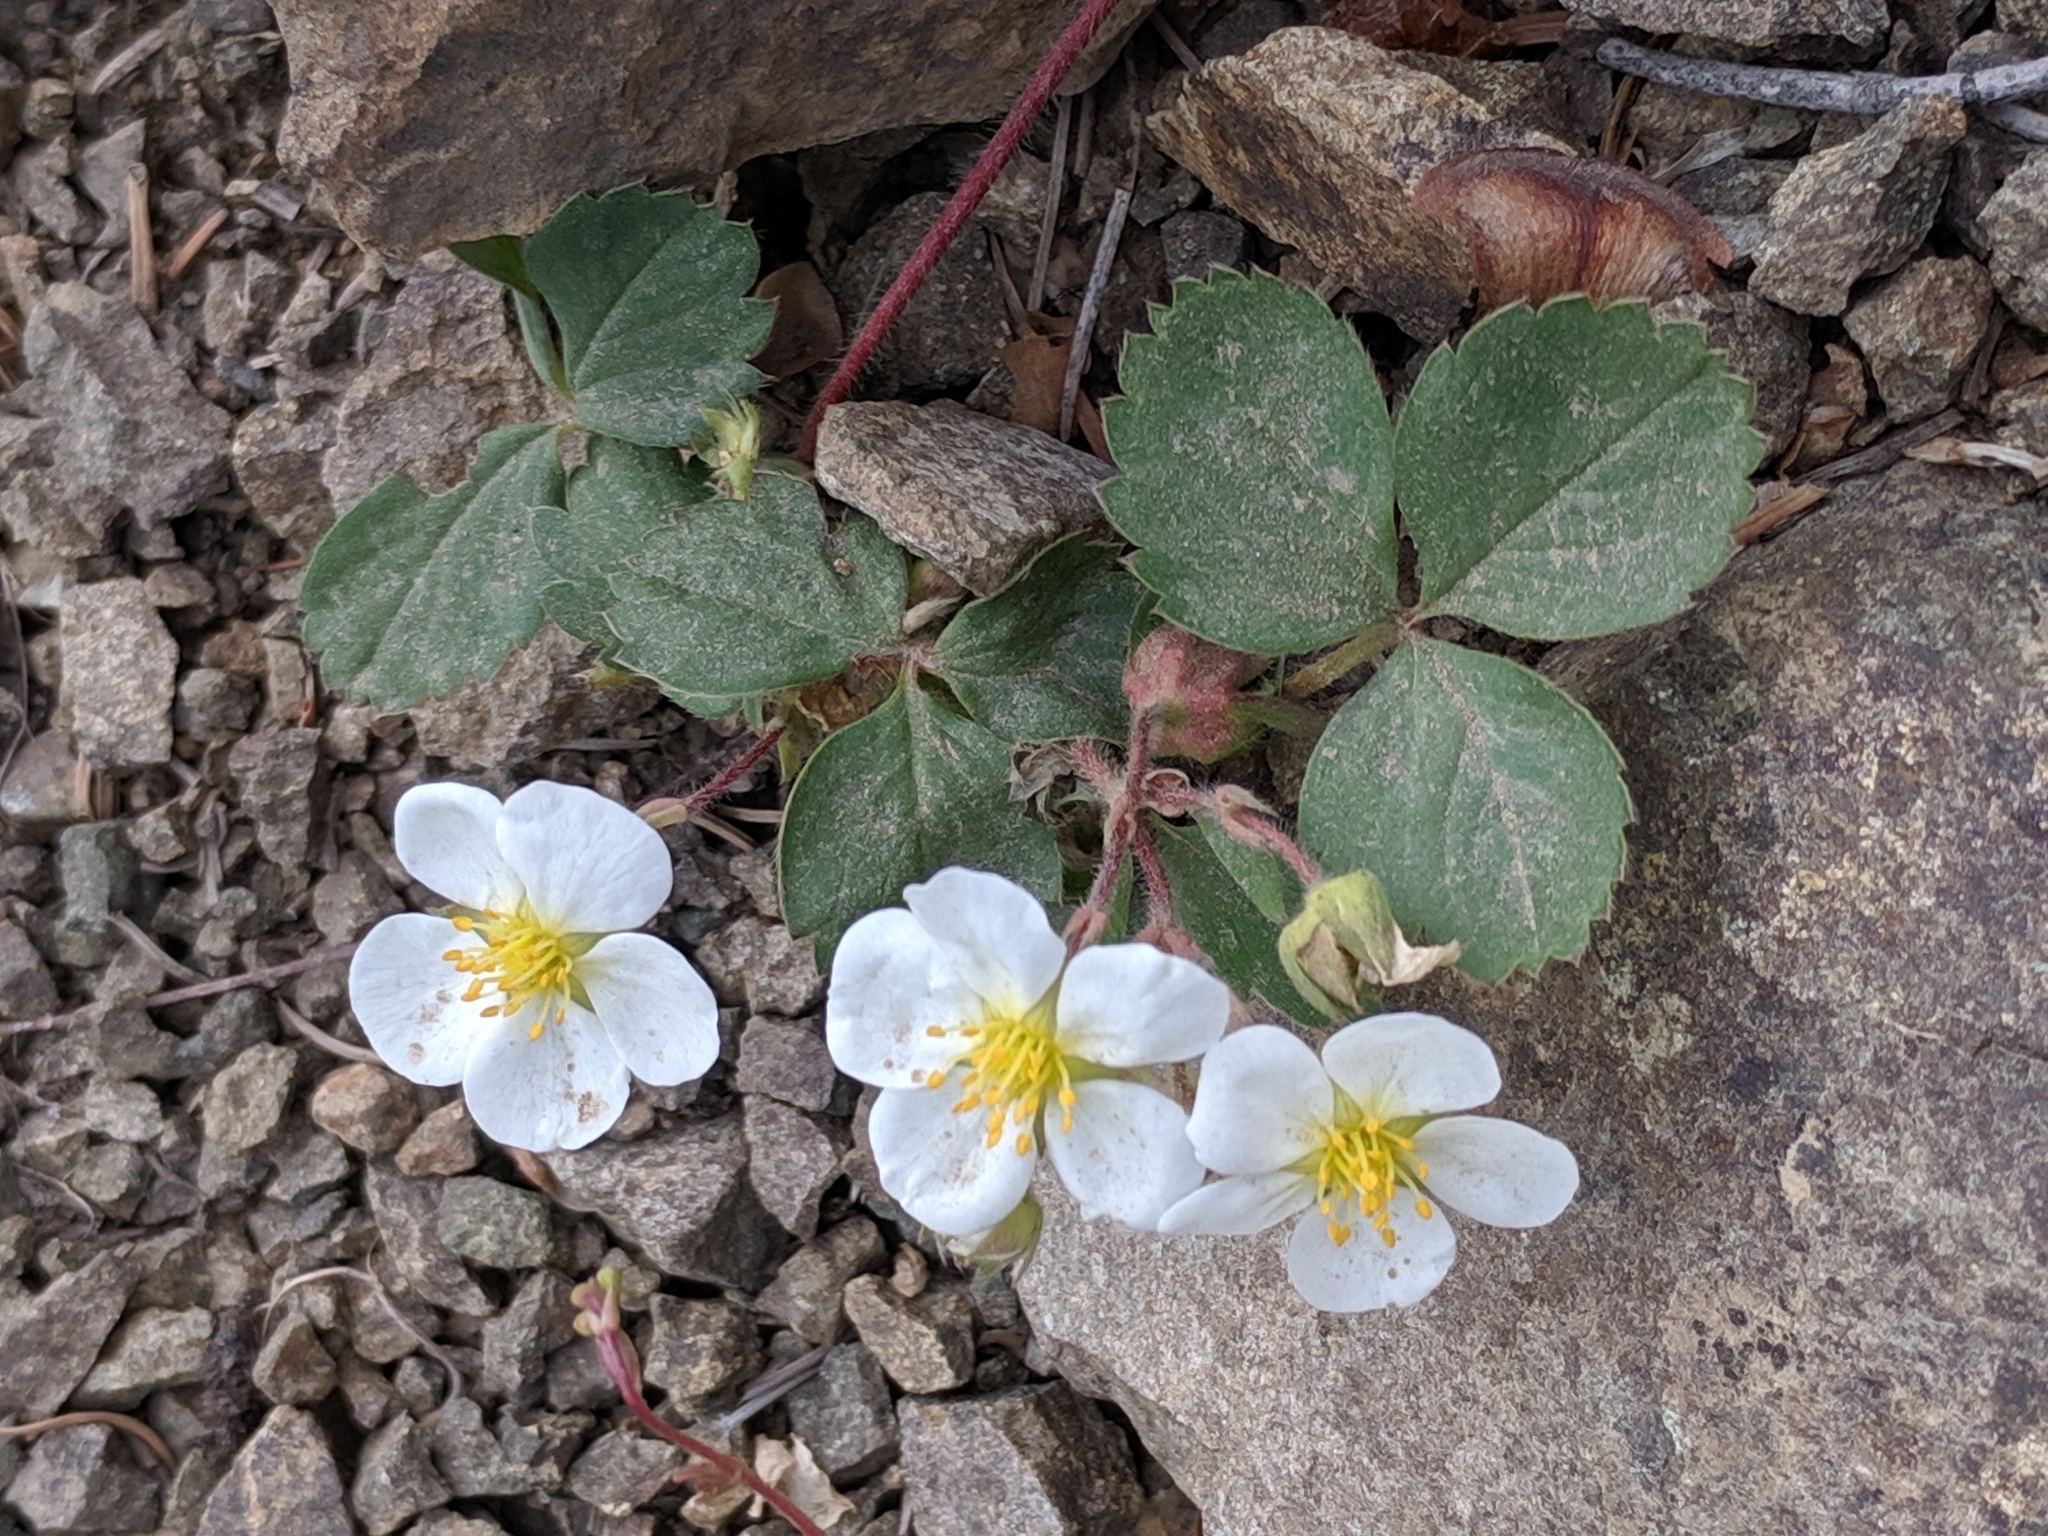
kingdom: Plantae
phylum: Tracheophyta
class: Magnoliopsida
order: Rosales
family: Rosaceae
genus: Fragaria
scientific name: Fragaria virginiana
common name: Thickleaved wild strawberry
